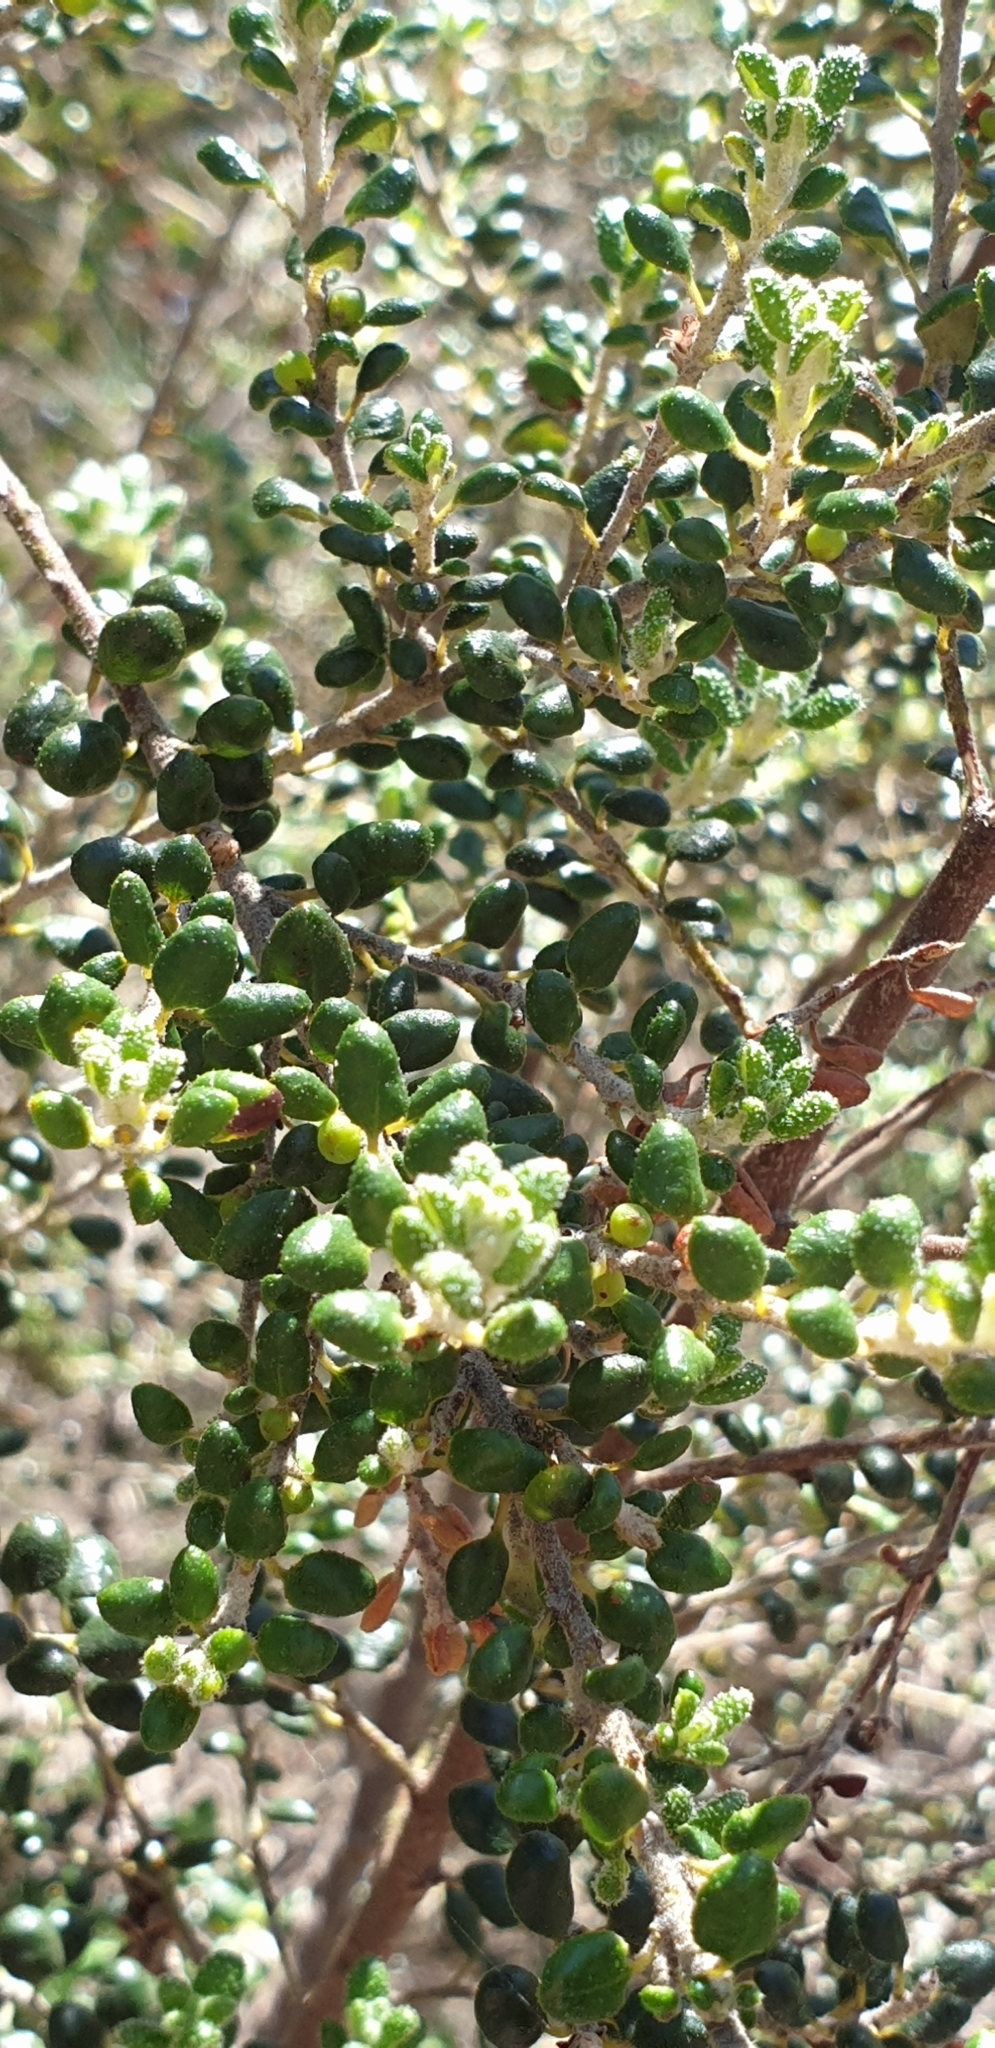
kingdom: Plantae
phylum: Tracheophyta
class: Magnoliopsida
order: Malpighiales
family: Euphorbiaceae
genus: Bertya
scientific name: Bertya rotundifolia
